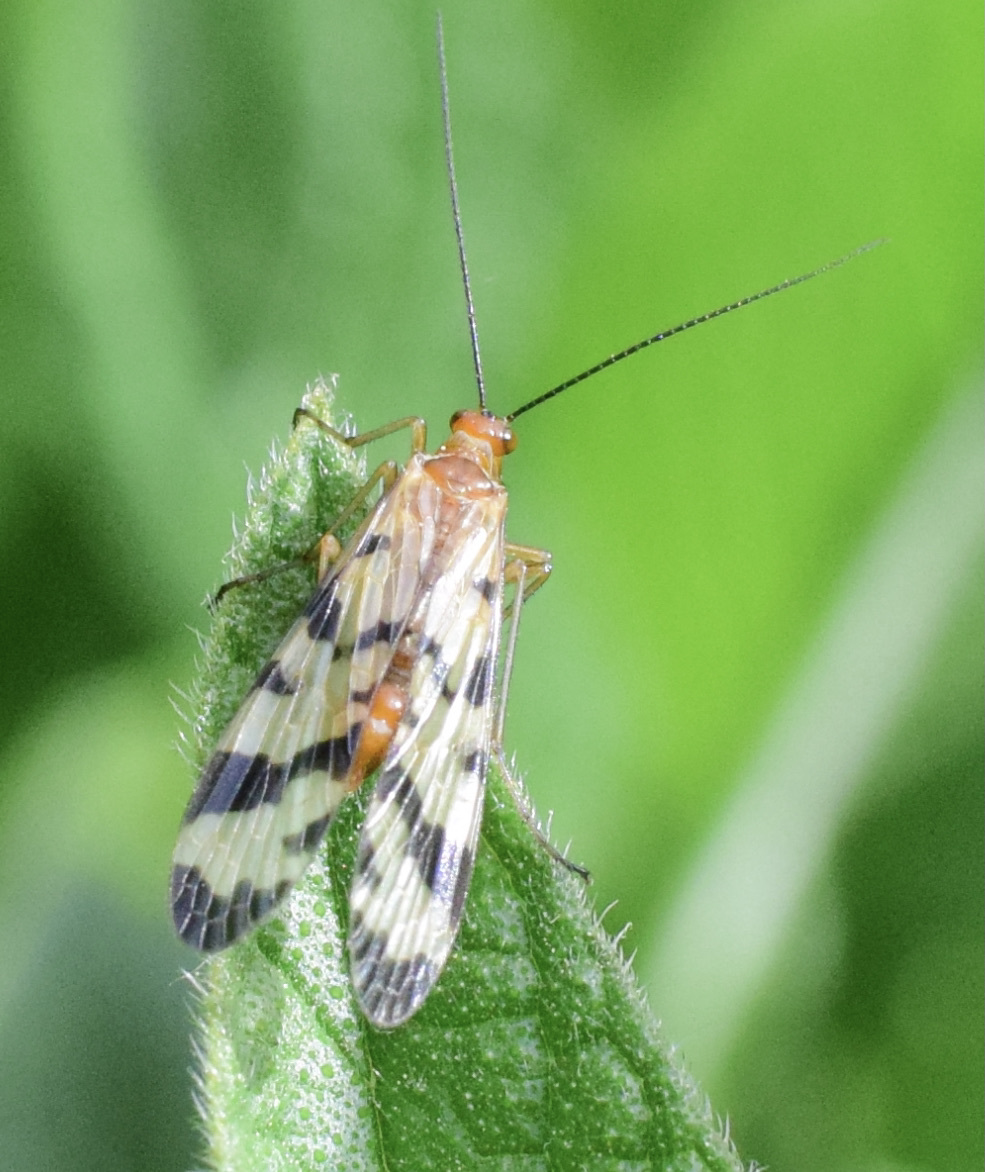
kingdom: Animalia
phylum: Arthropoda
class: Insecta
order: Mecoptera
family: Panorpidae
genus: Panorpa
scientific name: Panorpa galerita
